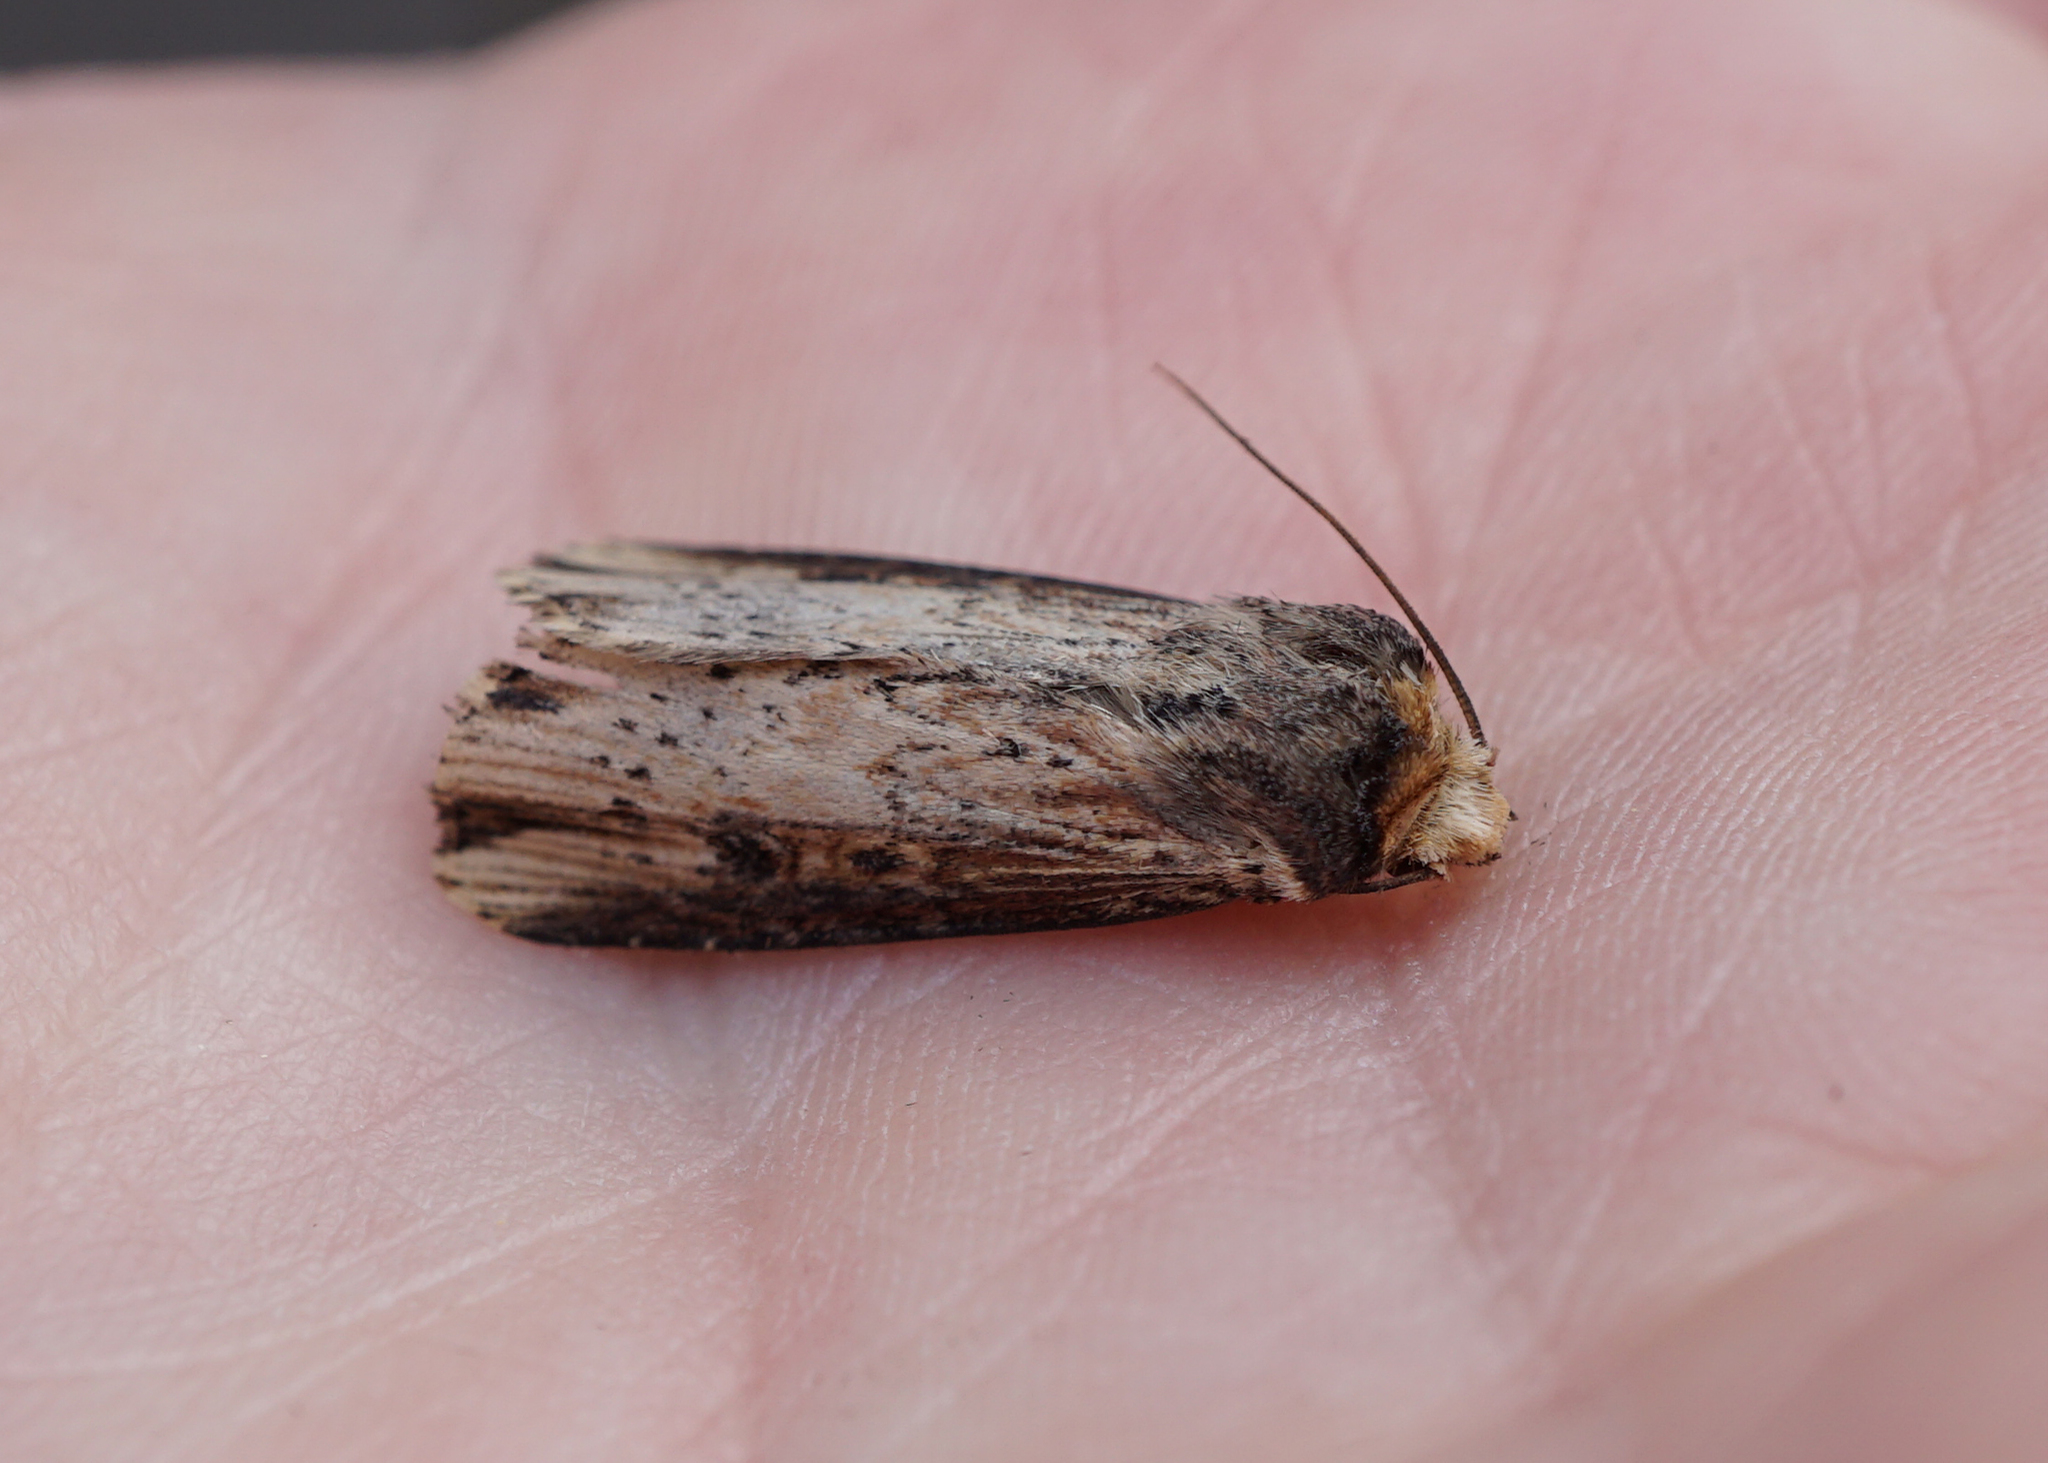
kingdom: Animalia
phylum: Arthropoda
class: Insecta
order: Lepidoptera
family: Noctuidae
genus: Axylia
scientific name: Axylia putris
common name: Flame
